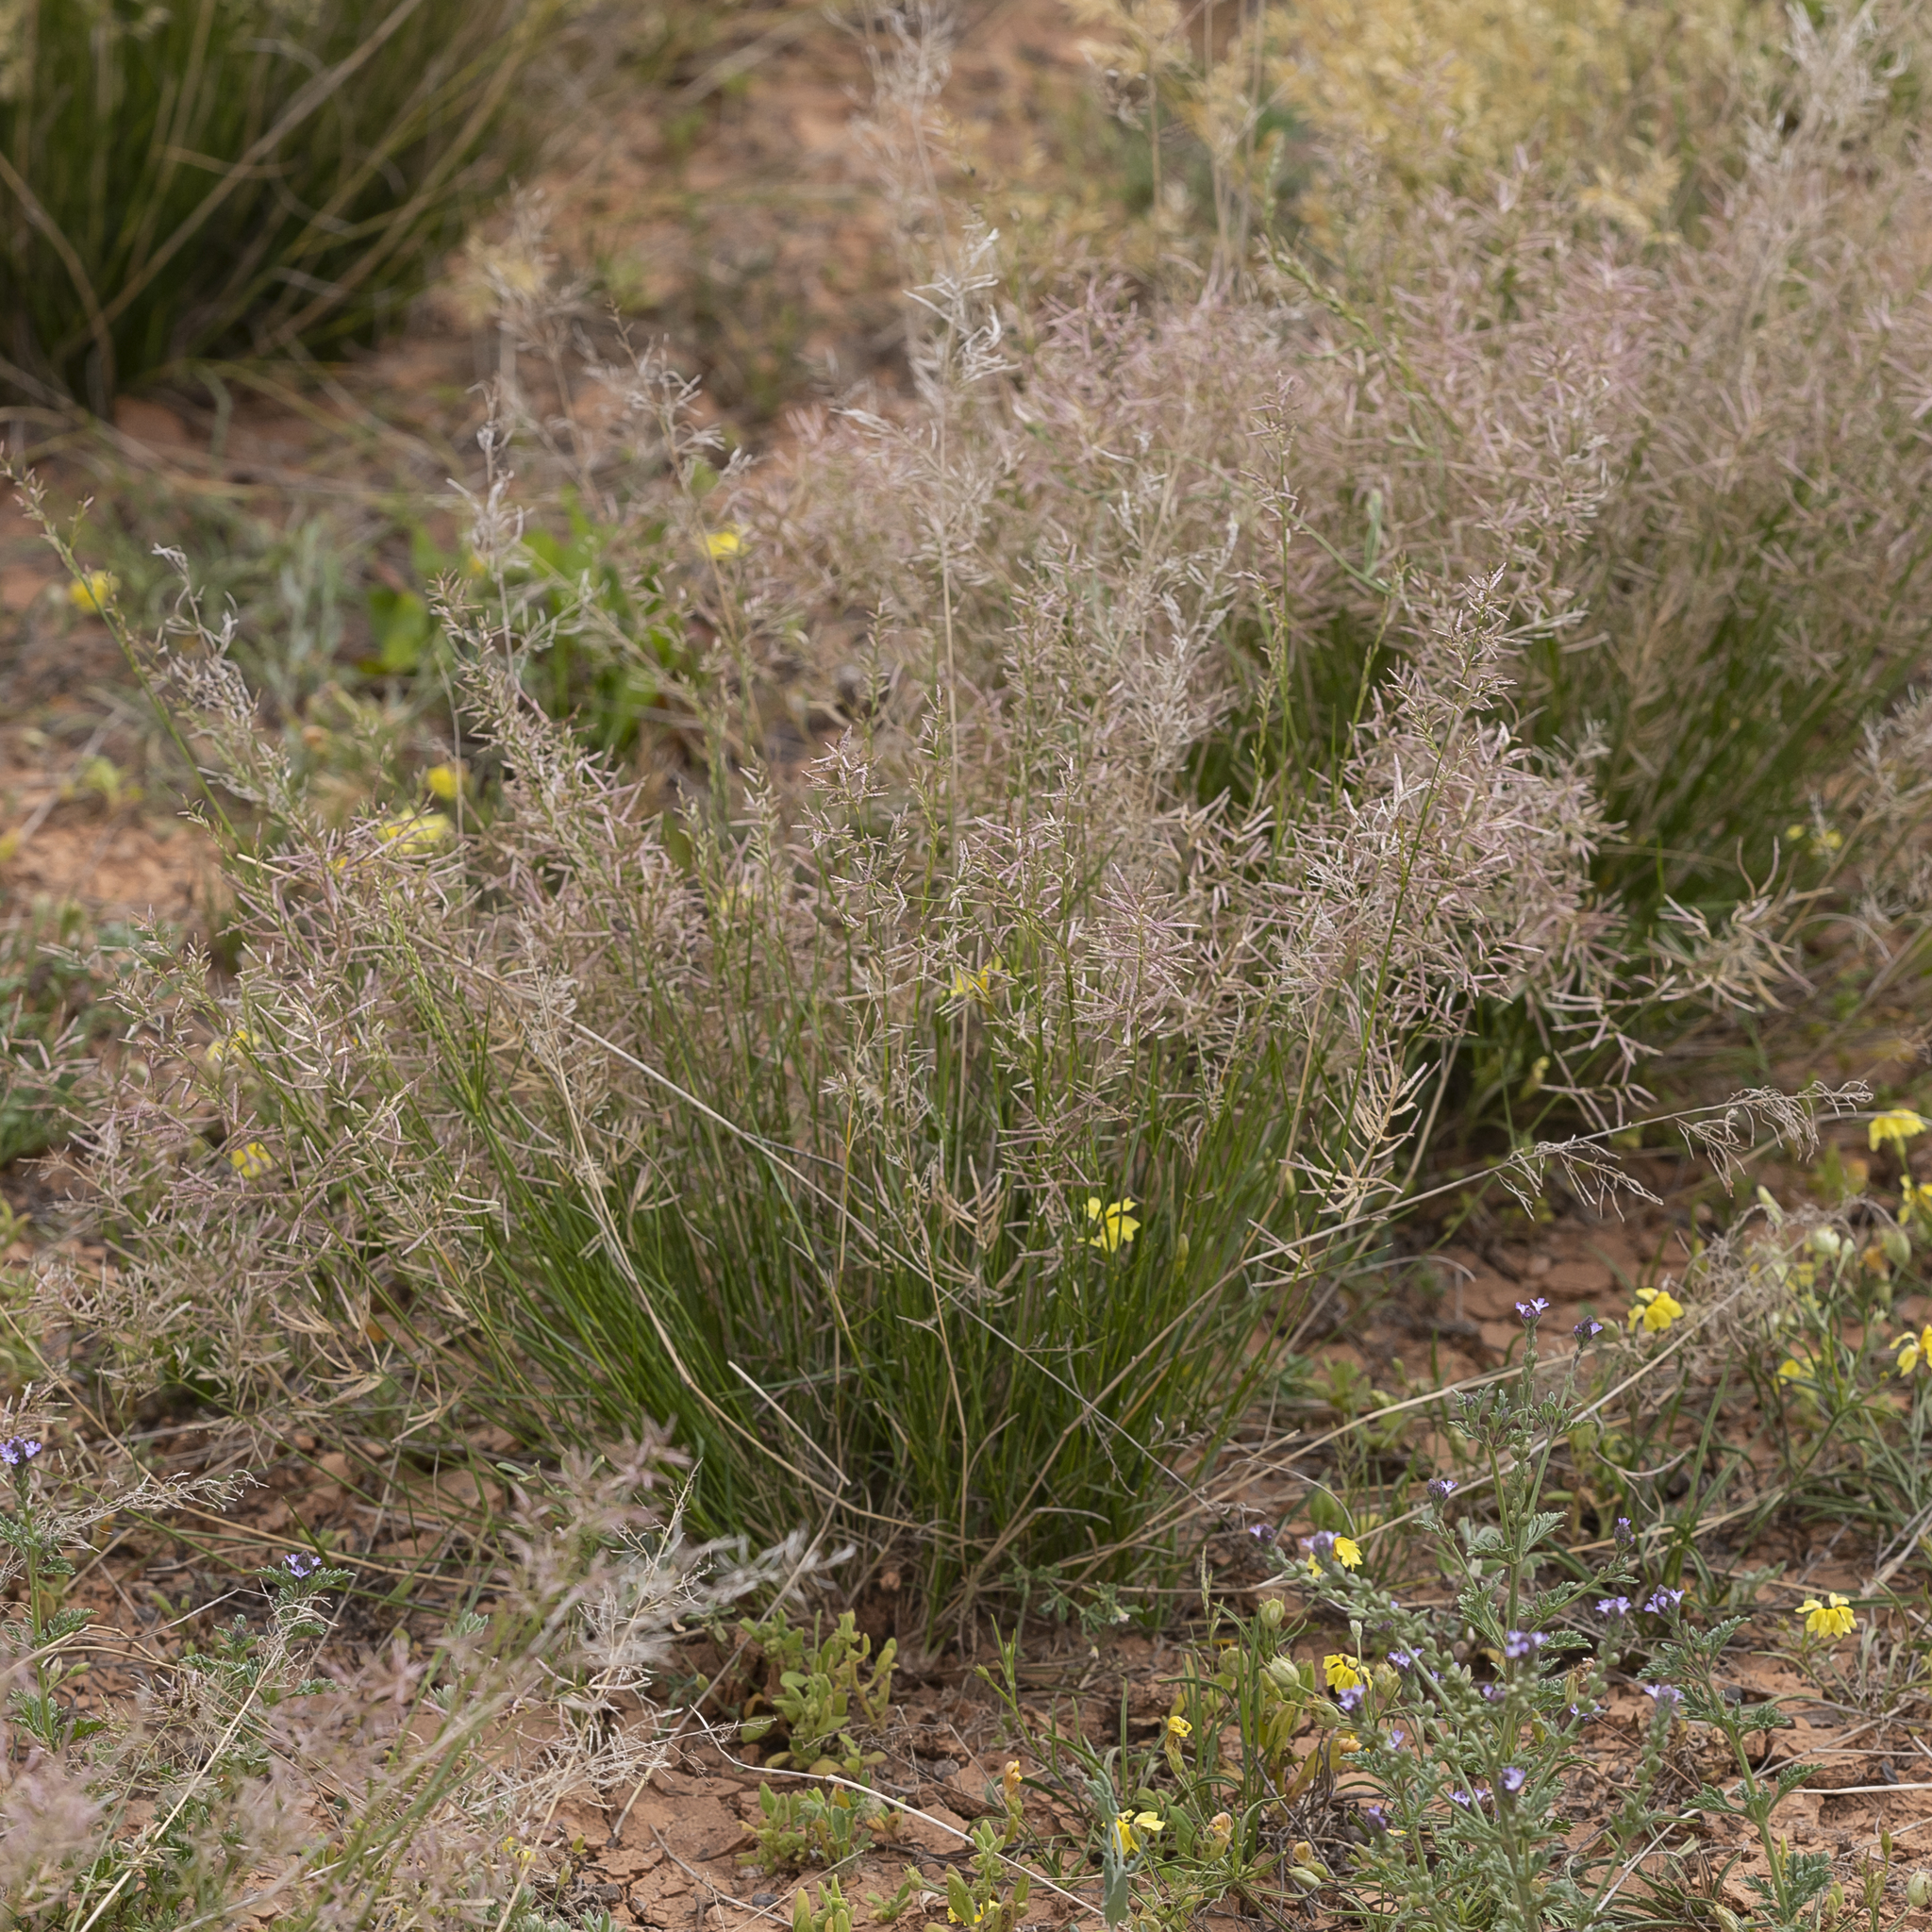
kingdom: Plantae
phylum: Tracheophyta
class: Liliopsida
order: Poales
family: Poaceae
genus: Eragrostis
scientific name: Eragrostis falcata
